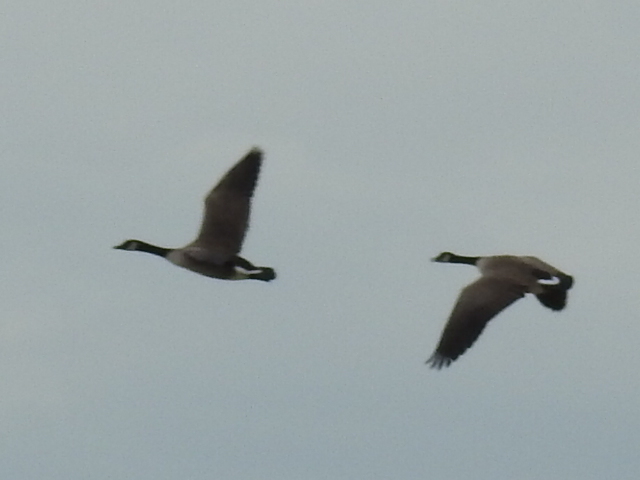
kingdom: Animalia
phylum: Chordata
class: Aves
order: Anseriformes
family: Anatidae
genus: Branta
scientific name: Branta canadensis
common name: Canada goose
